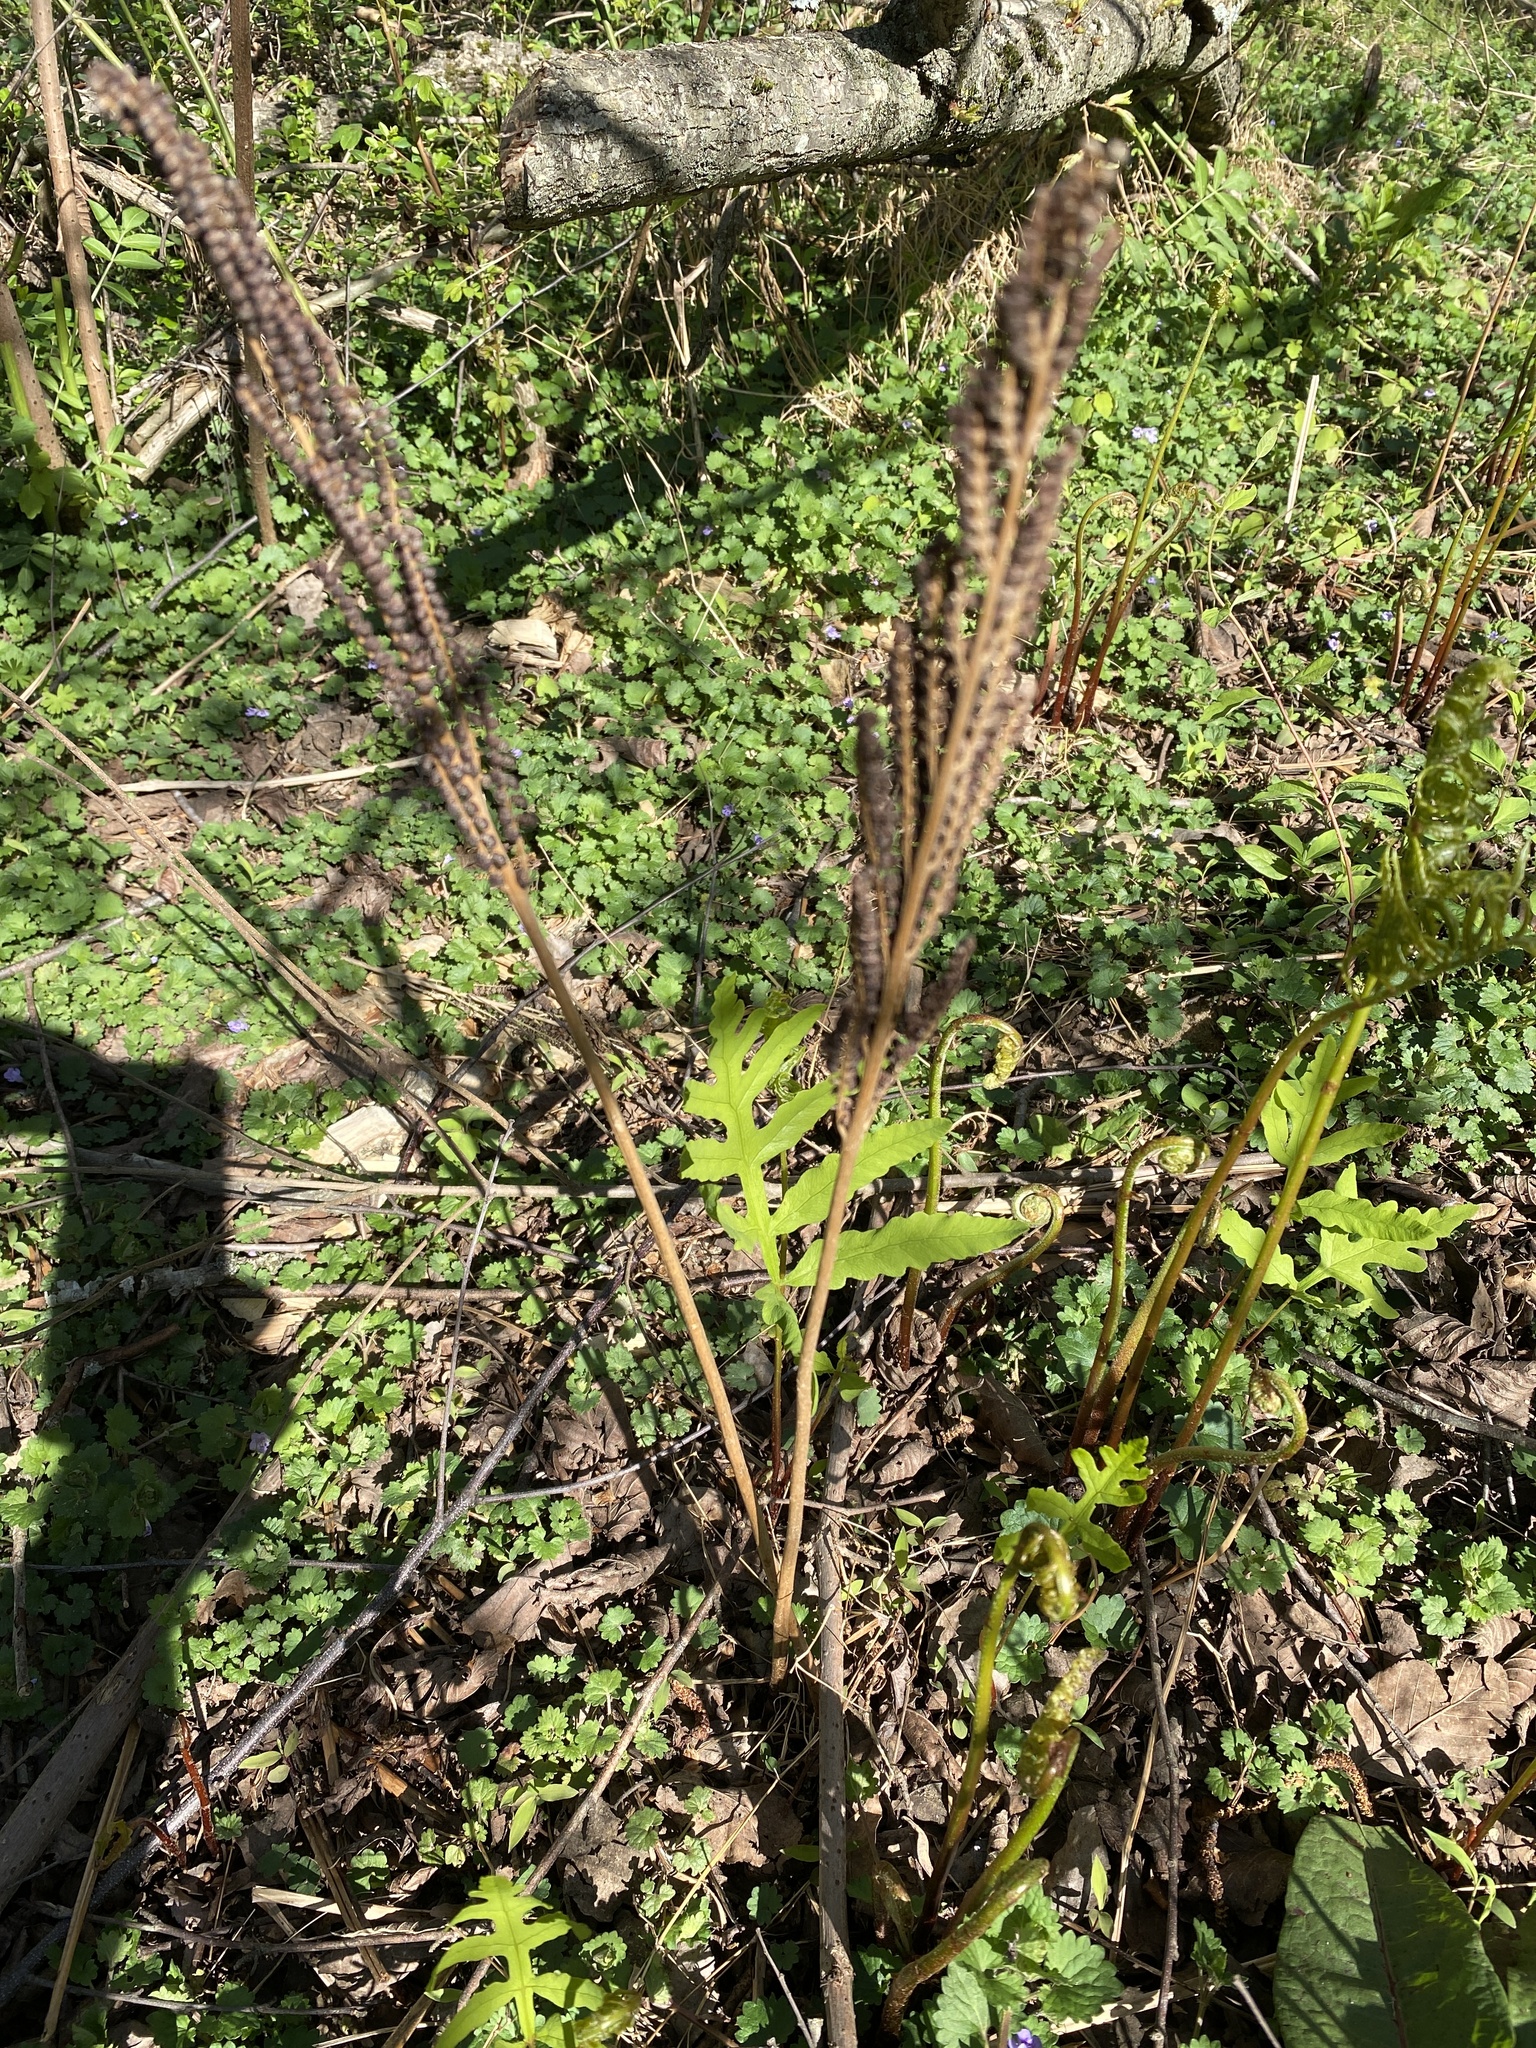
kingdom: Plantae
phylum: Tracheophyta
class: Polypodiopsida
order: Polypodiales
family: Onocleaceae
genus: Onoclea
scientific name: Onoclea sensibilis
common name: Sensitive fern
